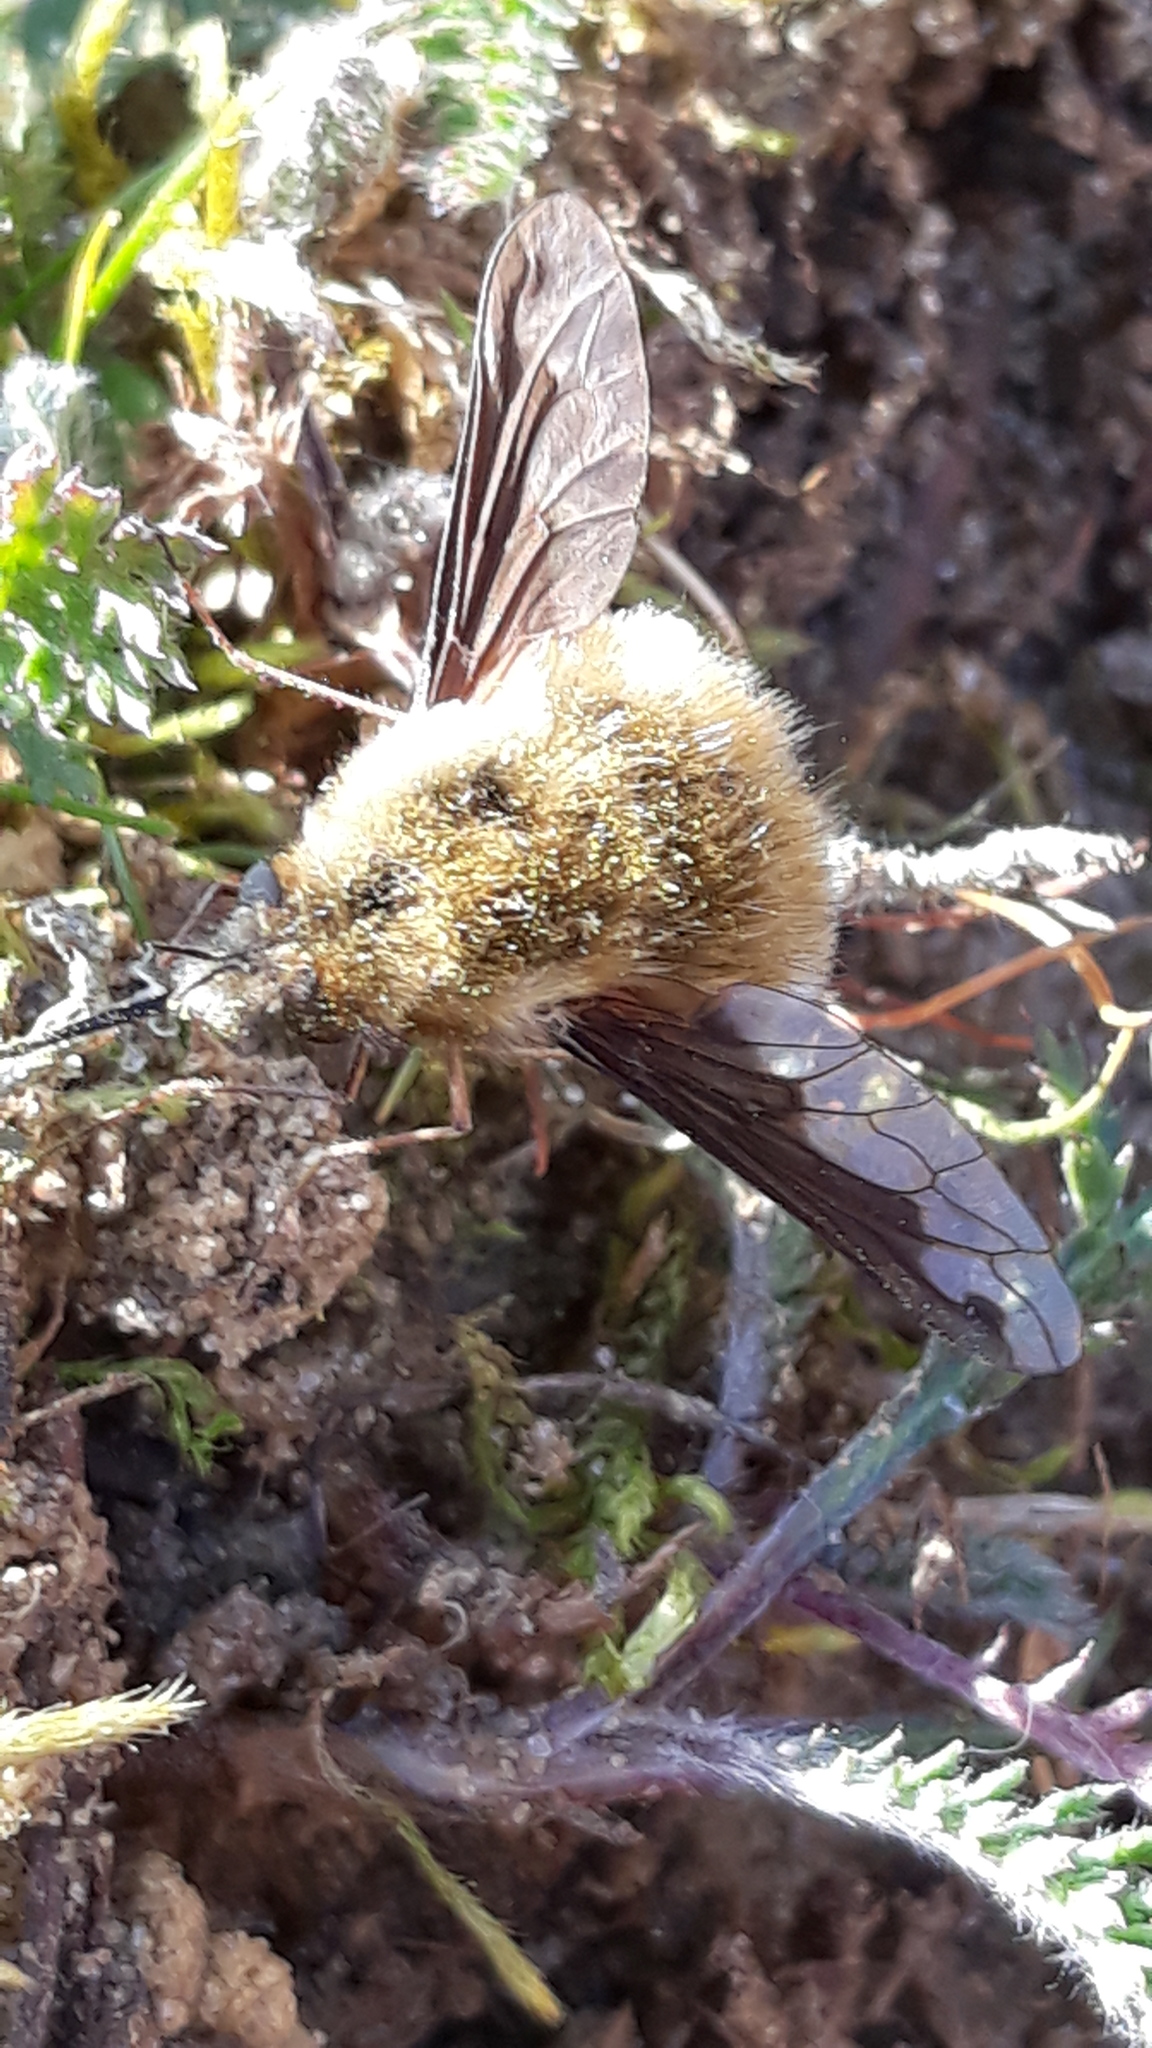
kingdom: Animalia
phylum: Arthropoda
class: Insecta
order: Diptera
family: Bombyliidae
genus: Bombylius
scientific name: Bombylius major
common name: Bee fly
